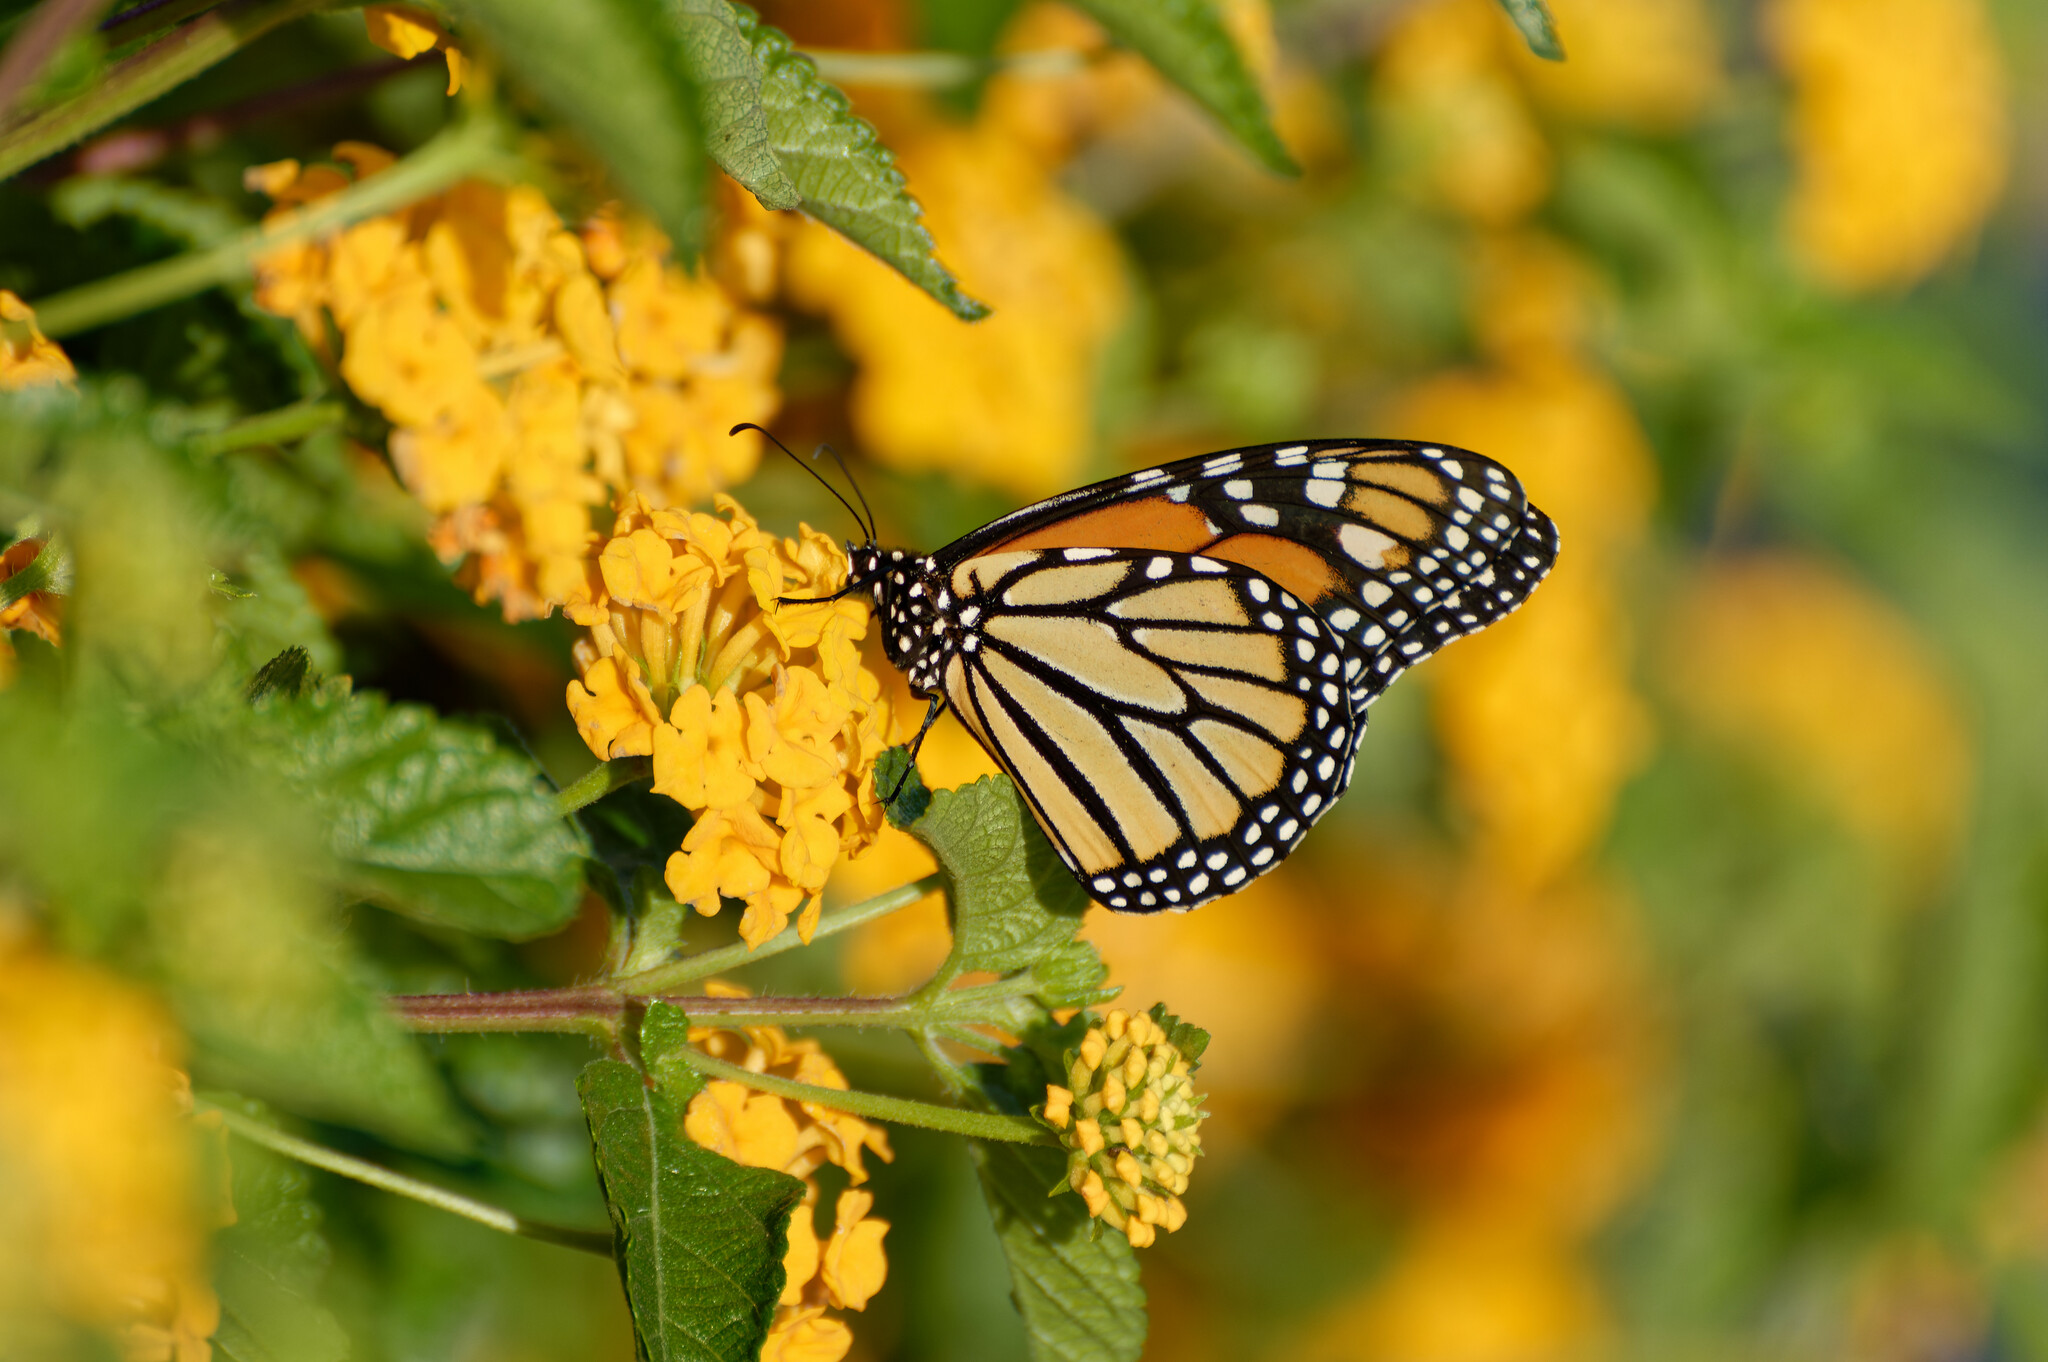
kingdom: Animalia
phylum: Arthropoda
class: Insecta
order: Lepidoptera
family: Nymphalidae
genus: Danaus
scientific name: Danaus plexippus
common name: Monarch
